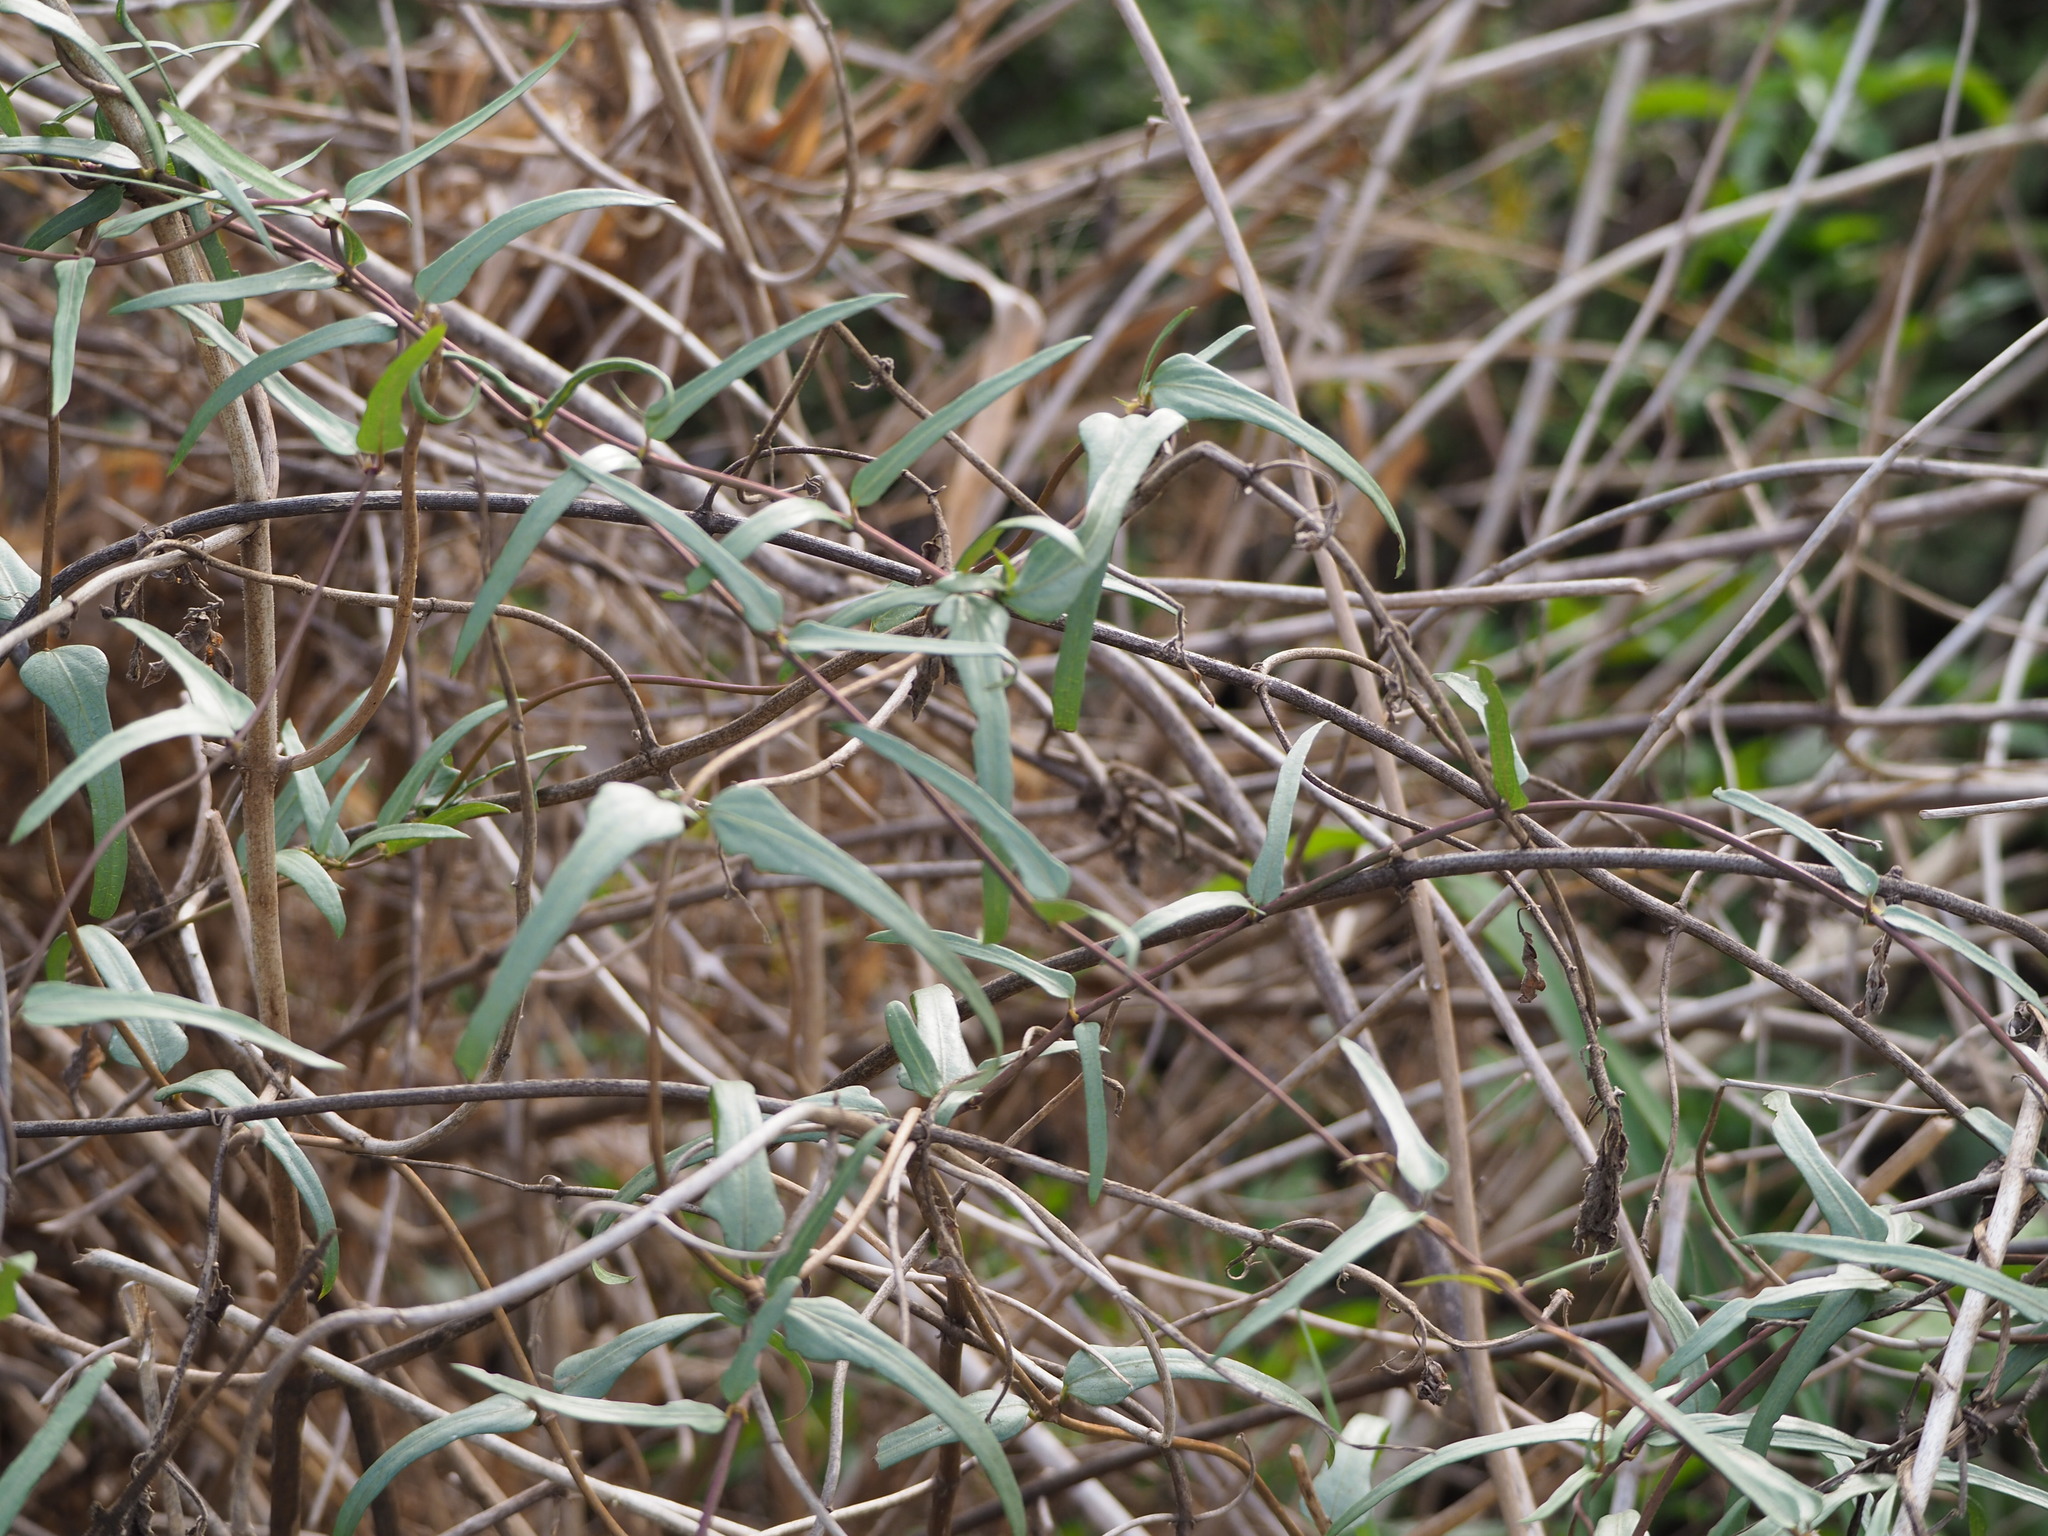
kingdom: Plantae
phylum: Tracheophyta
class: Magnoliopsida
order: Gentianales
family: Rubiaceae
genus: Paederia
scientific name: Paederia foetida
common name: Stinkvine
